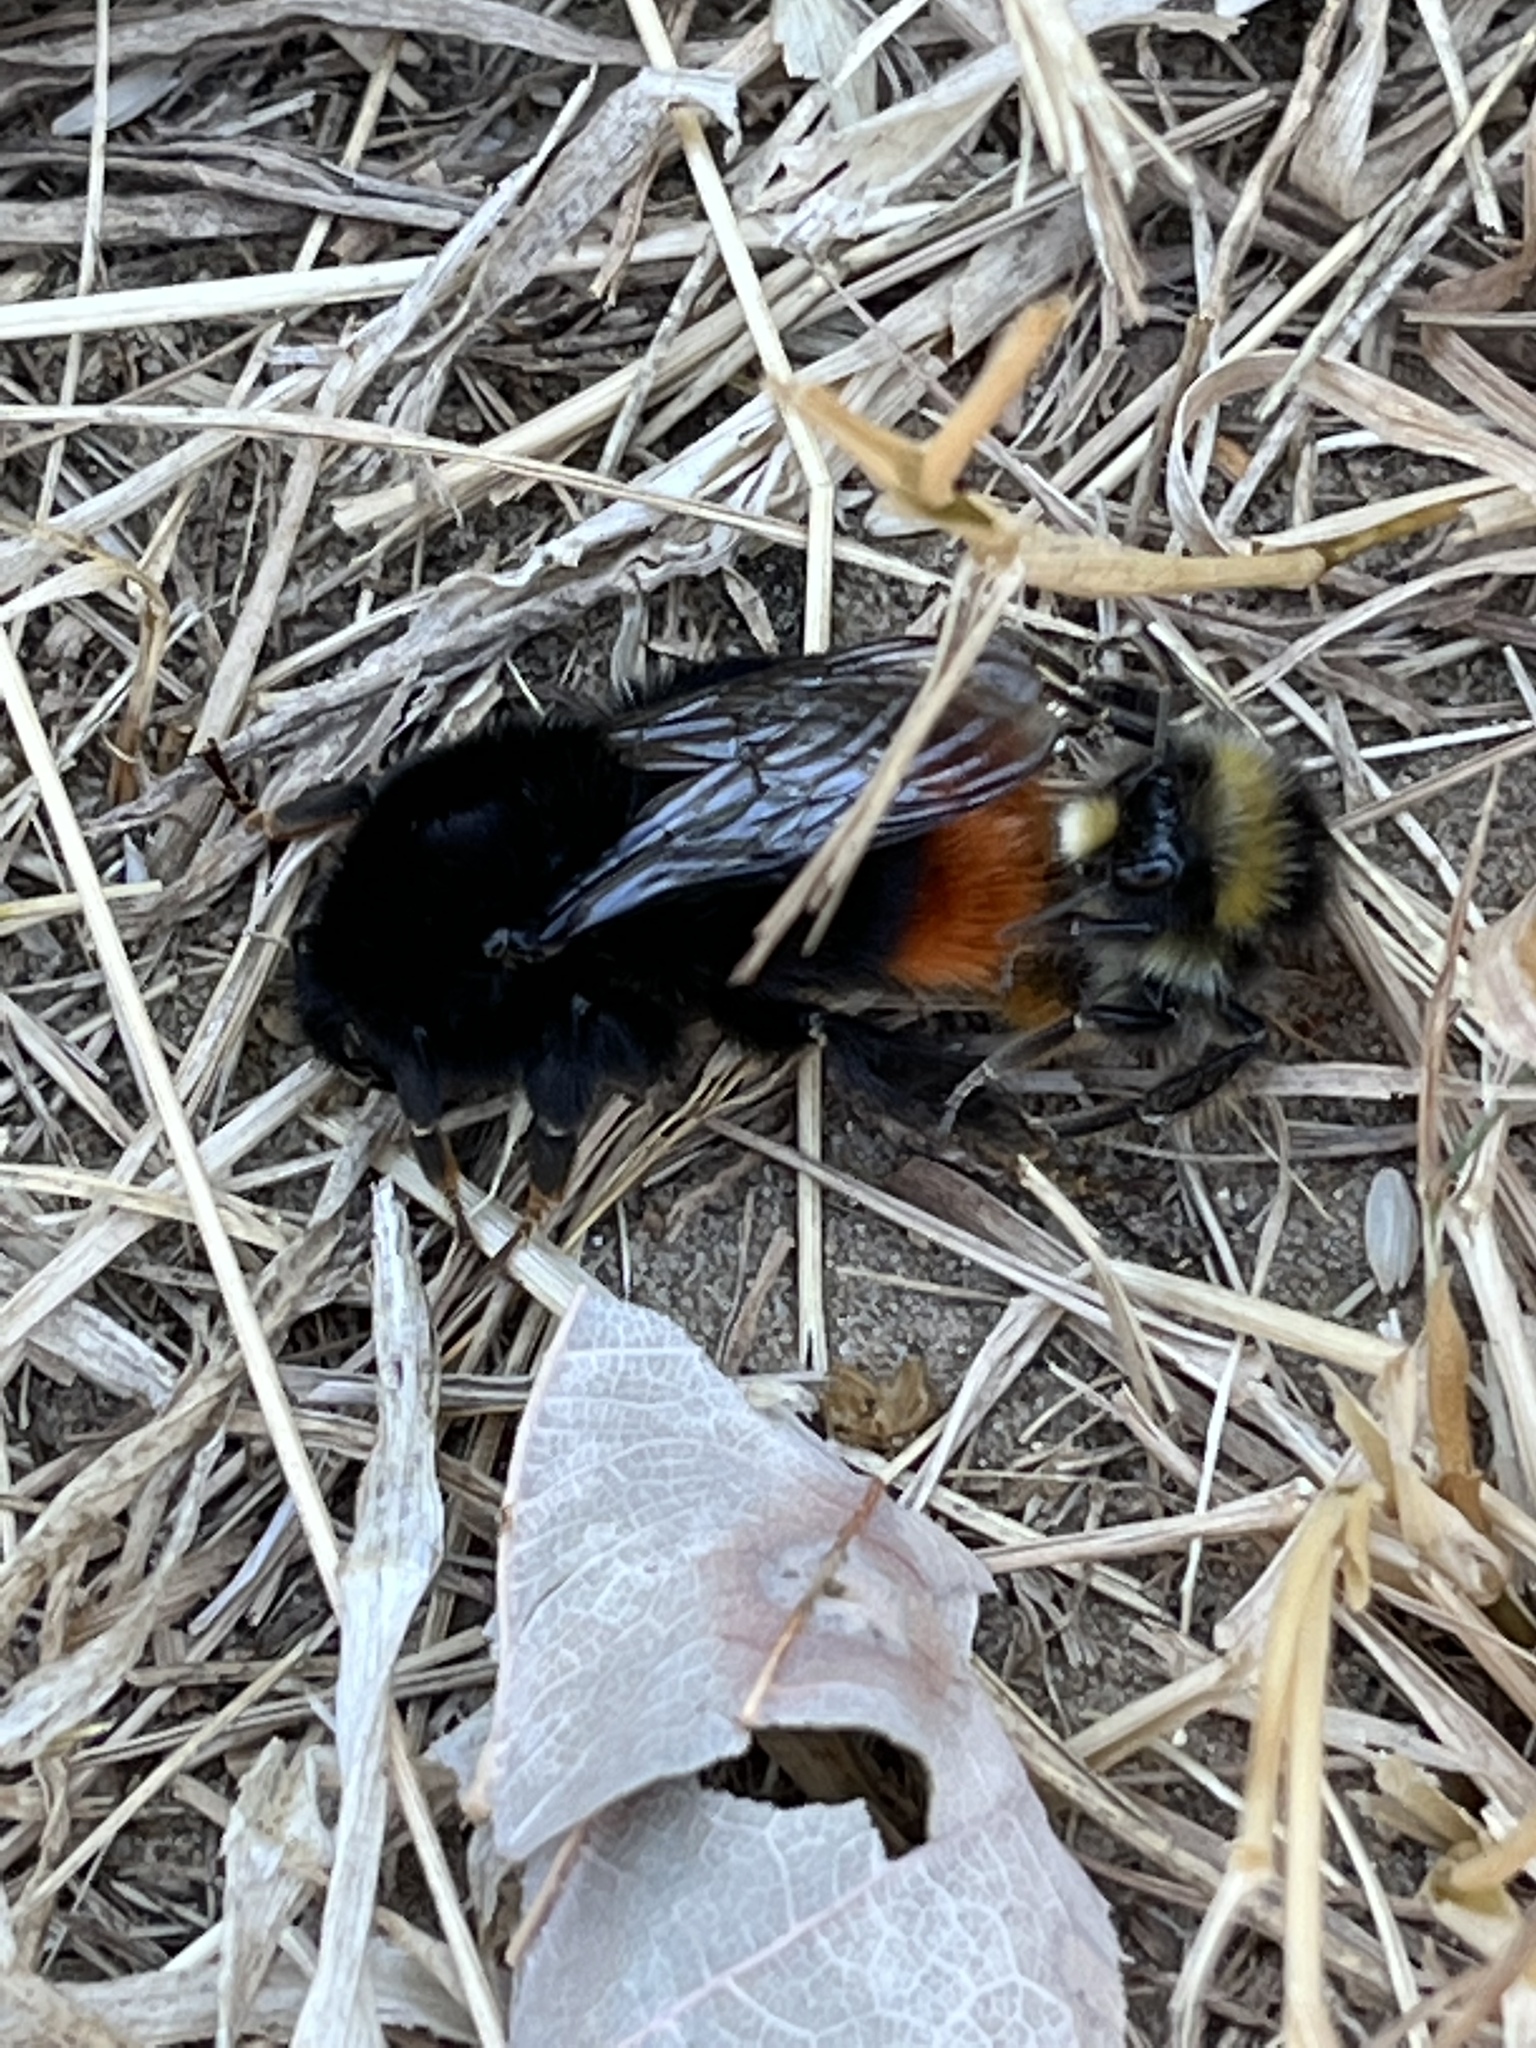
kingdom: Animalia
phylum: Arthropoda
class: Insecta
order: Hymenoptera
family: Apidae
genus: Bombus
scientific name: Bombus lapidarius
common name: Large red-tailed humble-bee
